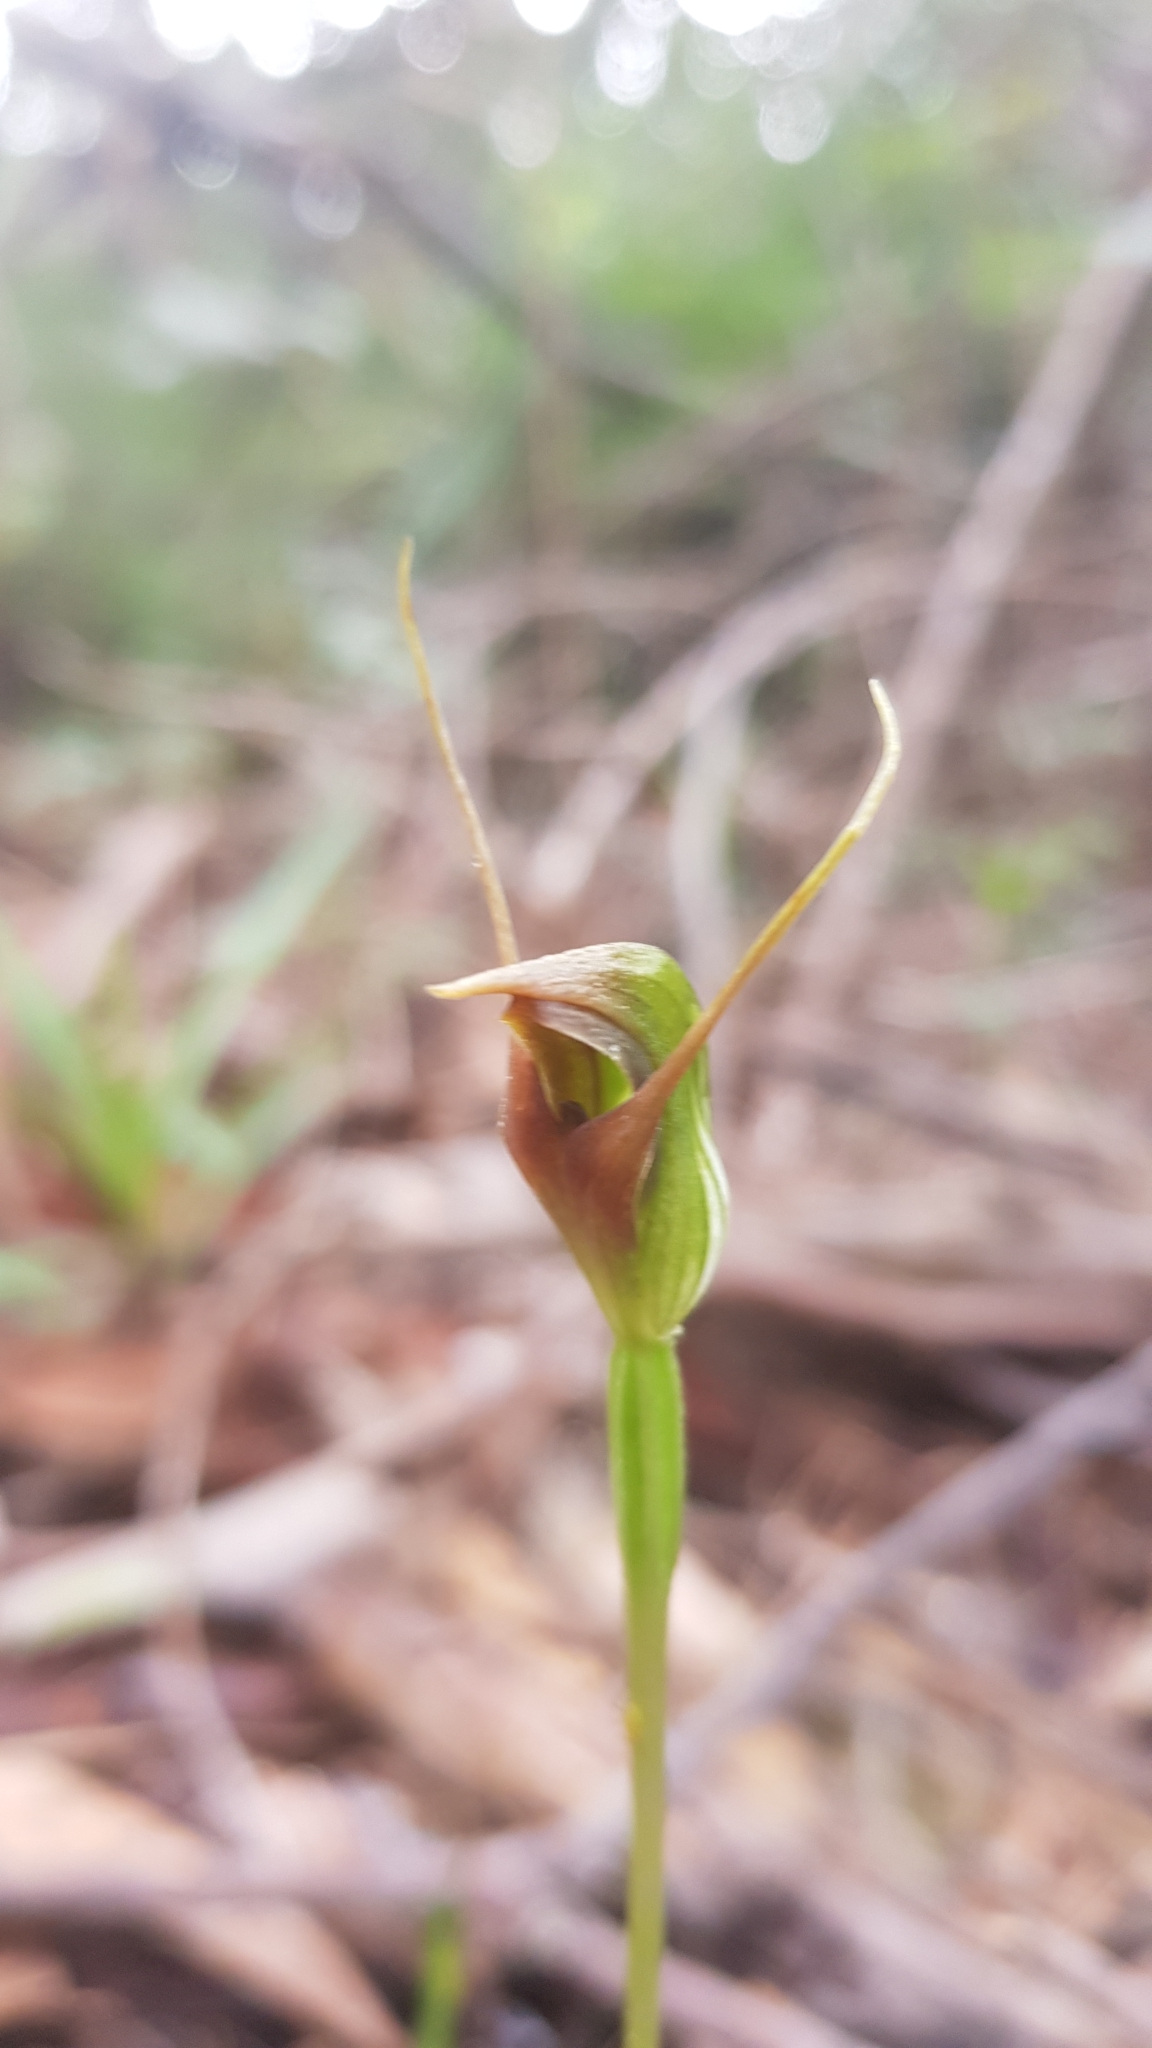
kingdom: Plantae
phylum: Tracheophyta
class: Liliopsida
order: Asparagales
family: Orchidaceae
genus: Pterostylis
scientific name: Pterostylis erecta
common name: Upright maroonhood
